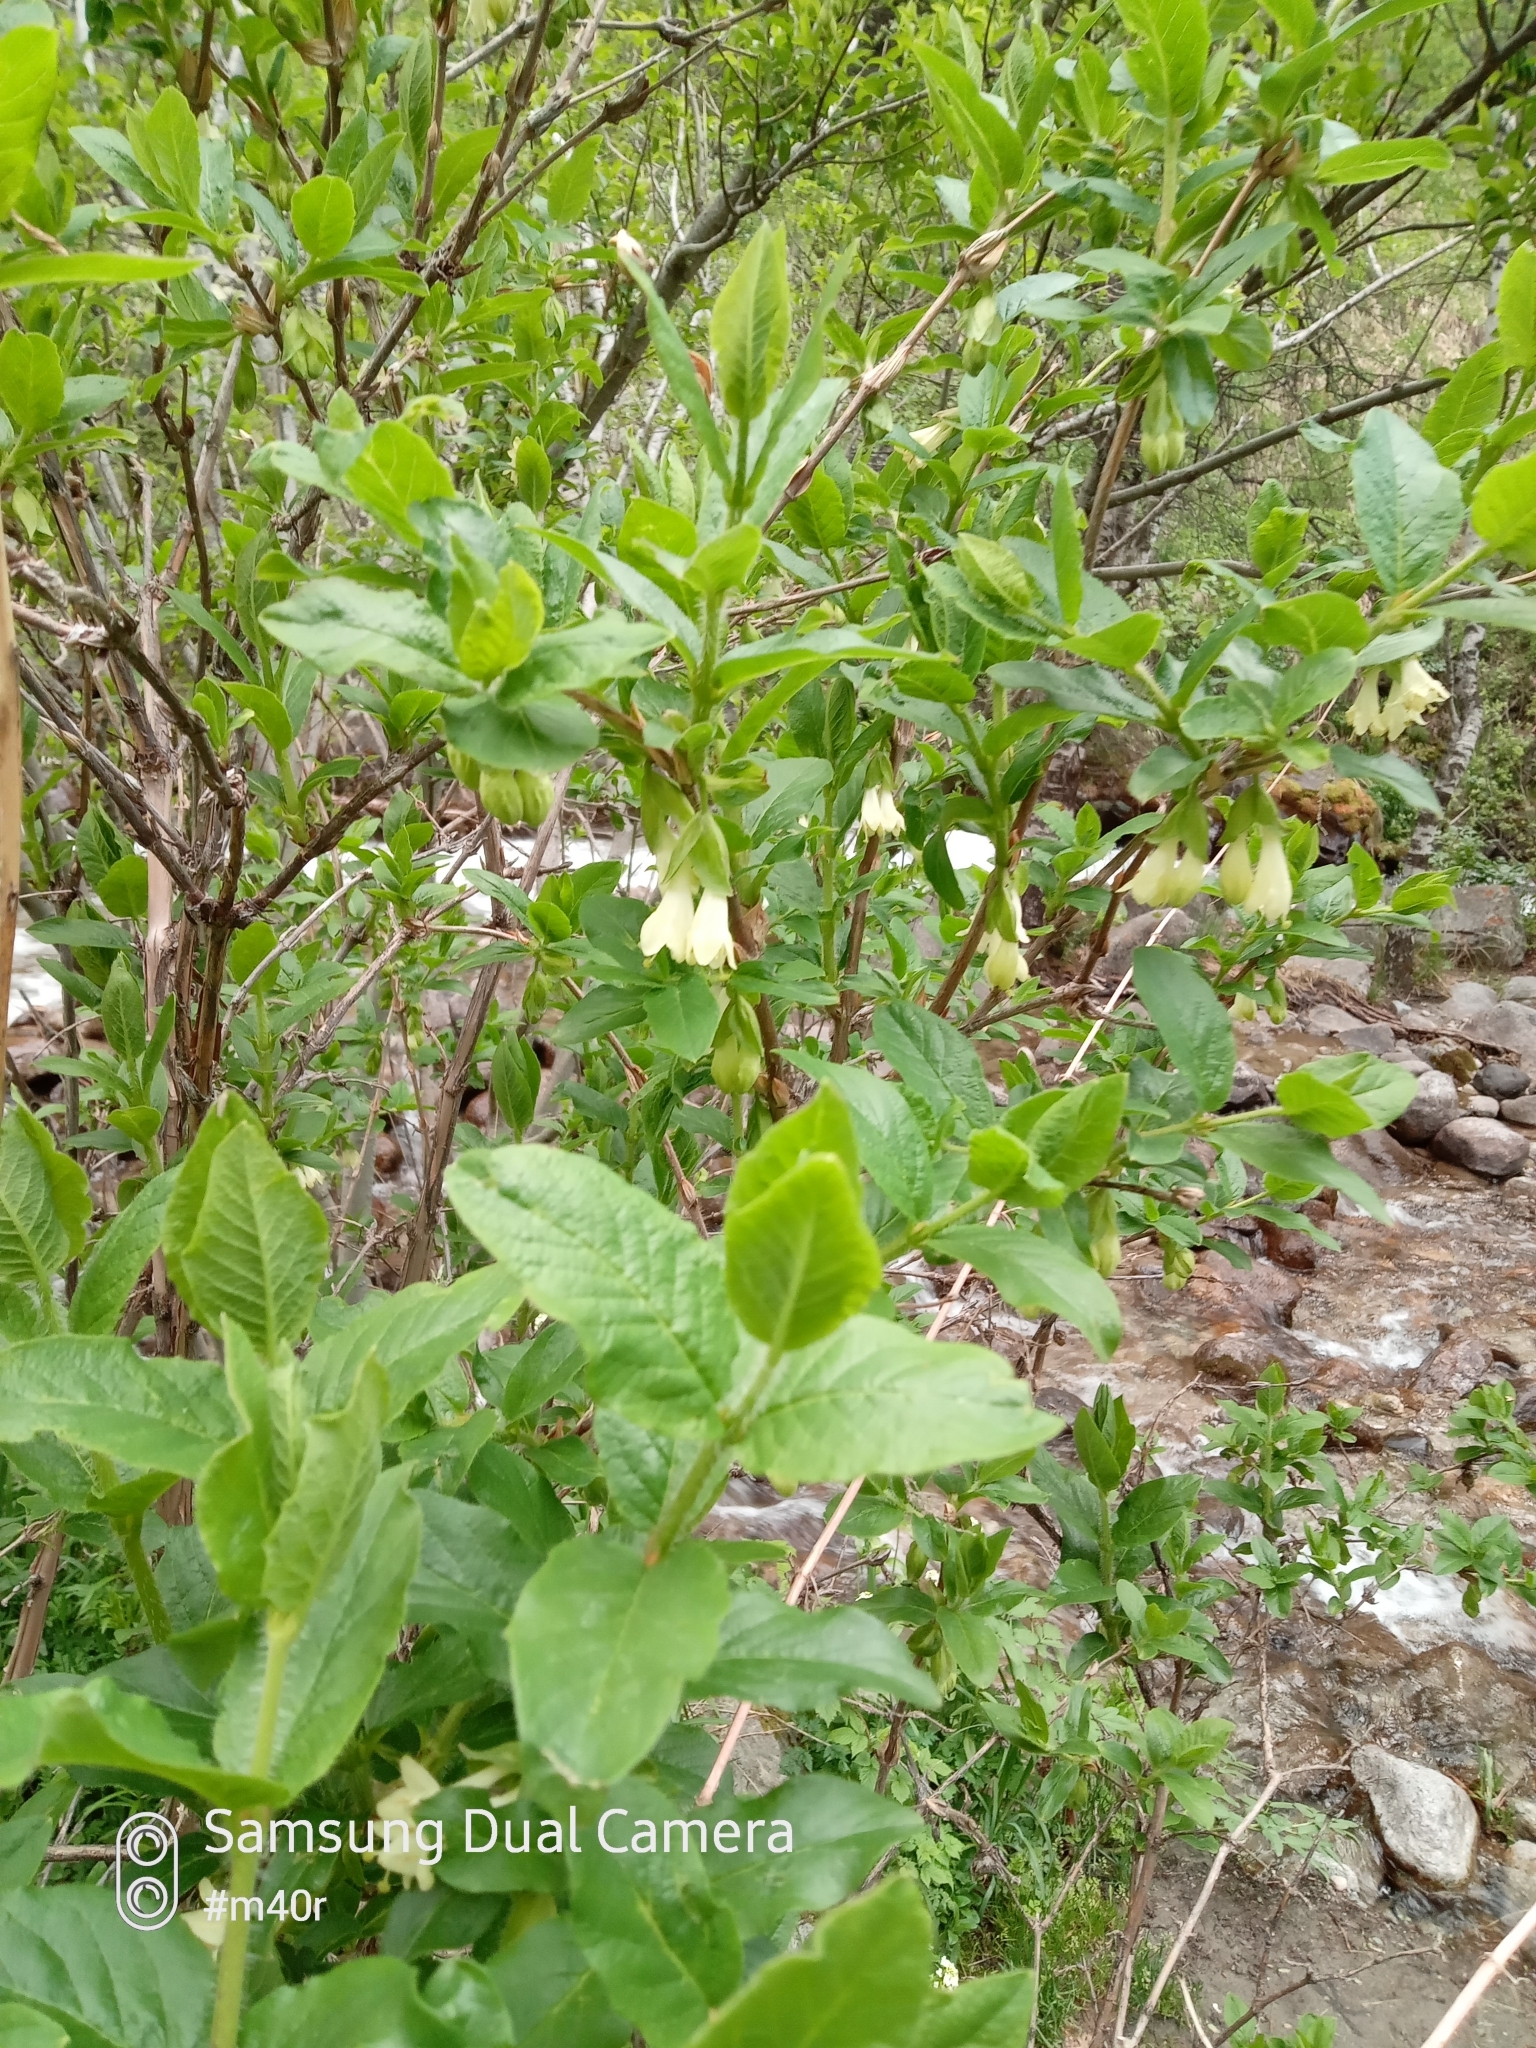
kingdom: Plantae
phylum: Tracheophyta
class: Magnoliopsida
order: Dipsacales
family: Caprifoliaceae
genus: Lonicera
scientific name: Lonicera hispida
